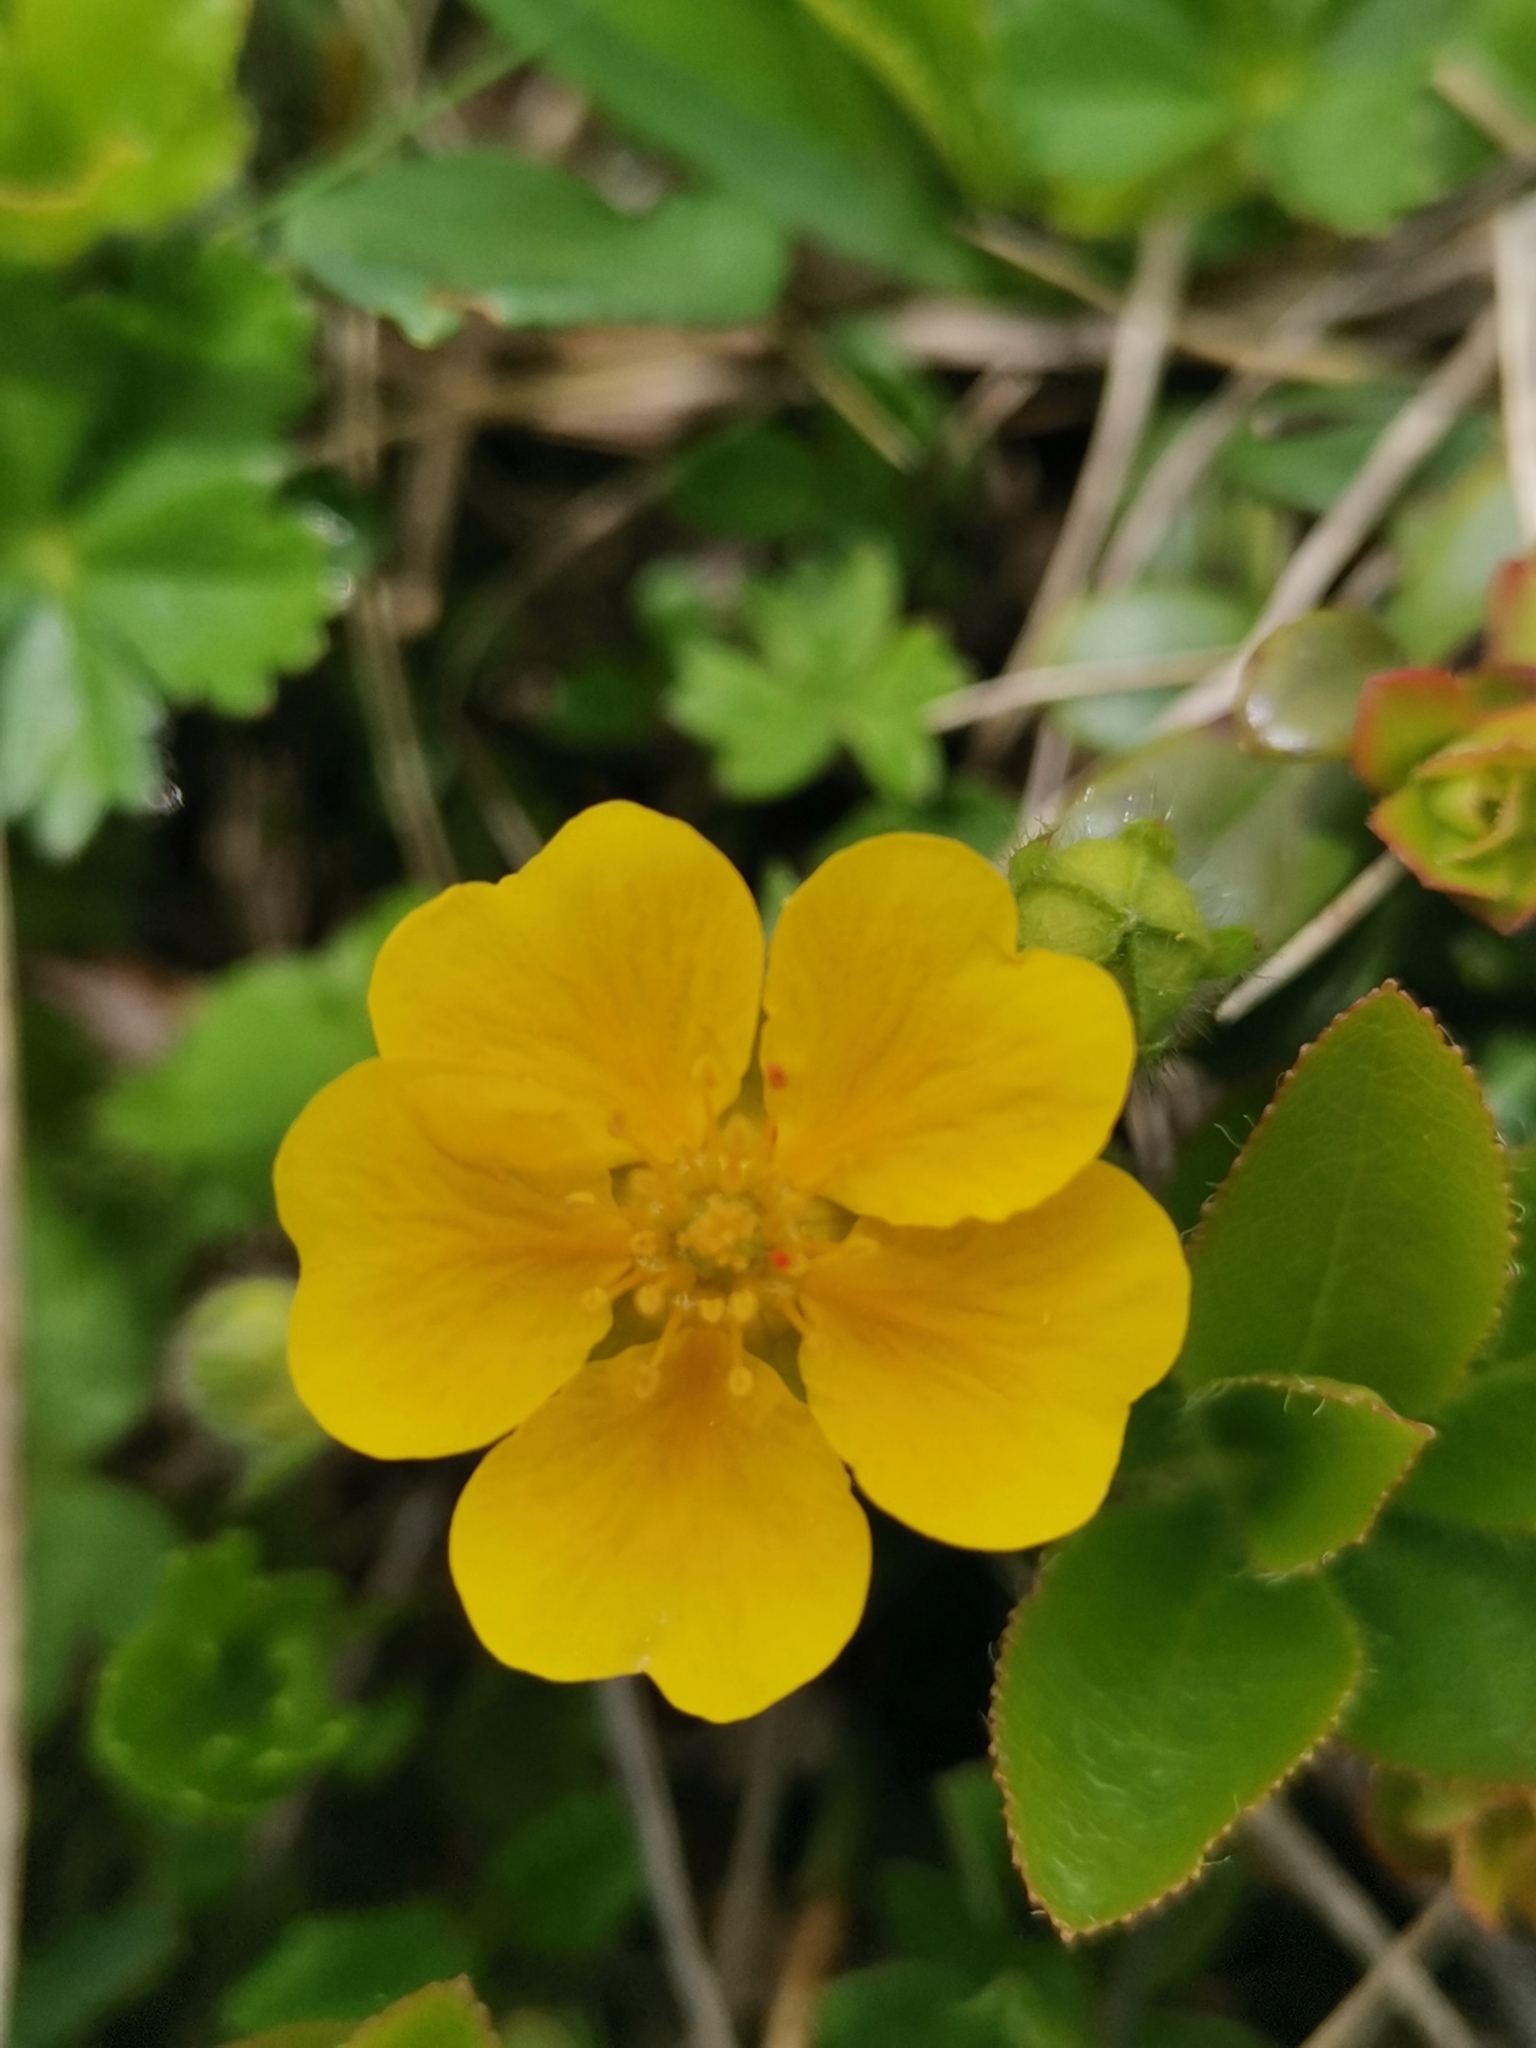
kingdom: Plantae
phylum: Tracheophyta
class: Magnoliopsida
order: Rosales
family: Rosaceae
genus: Potentilla
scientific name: Potentilla crantzii
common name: Alpine cinquefoil
